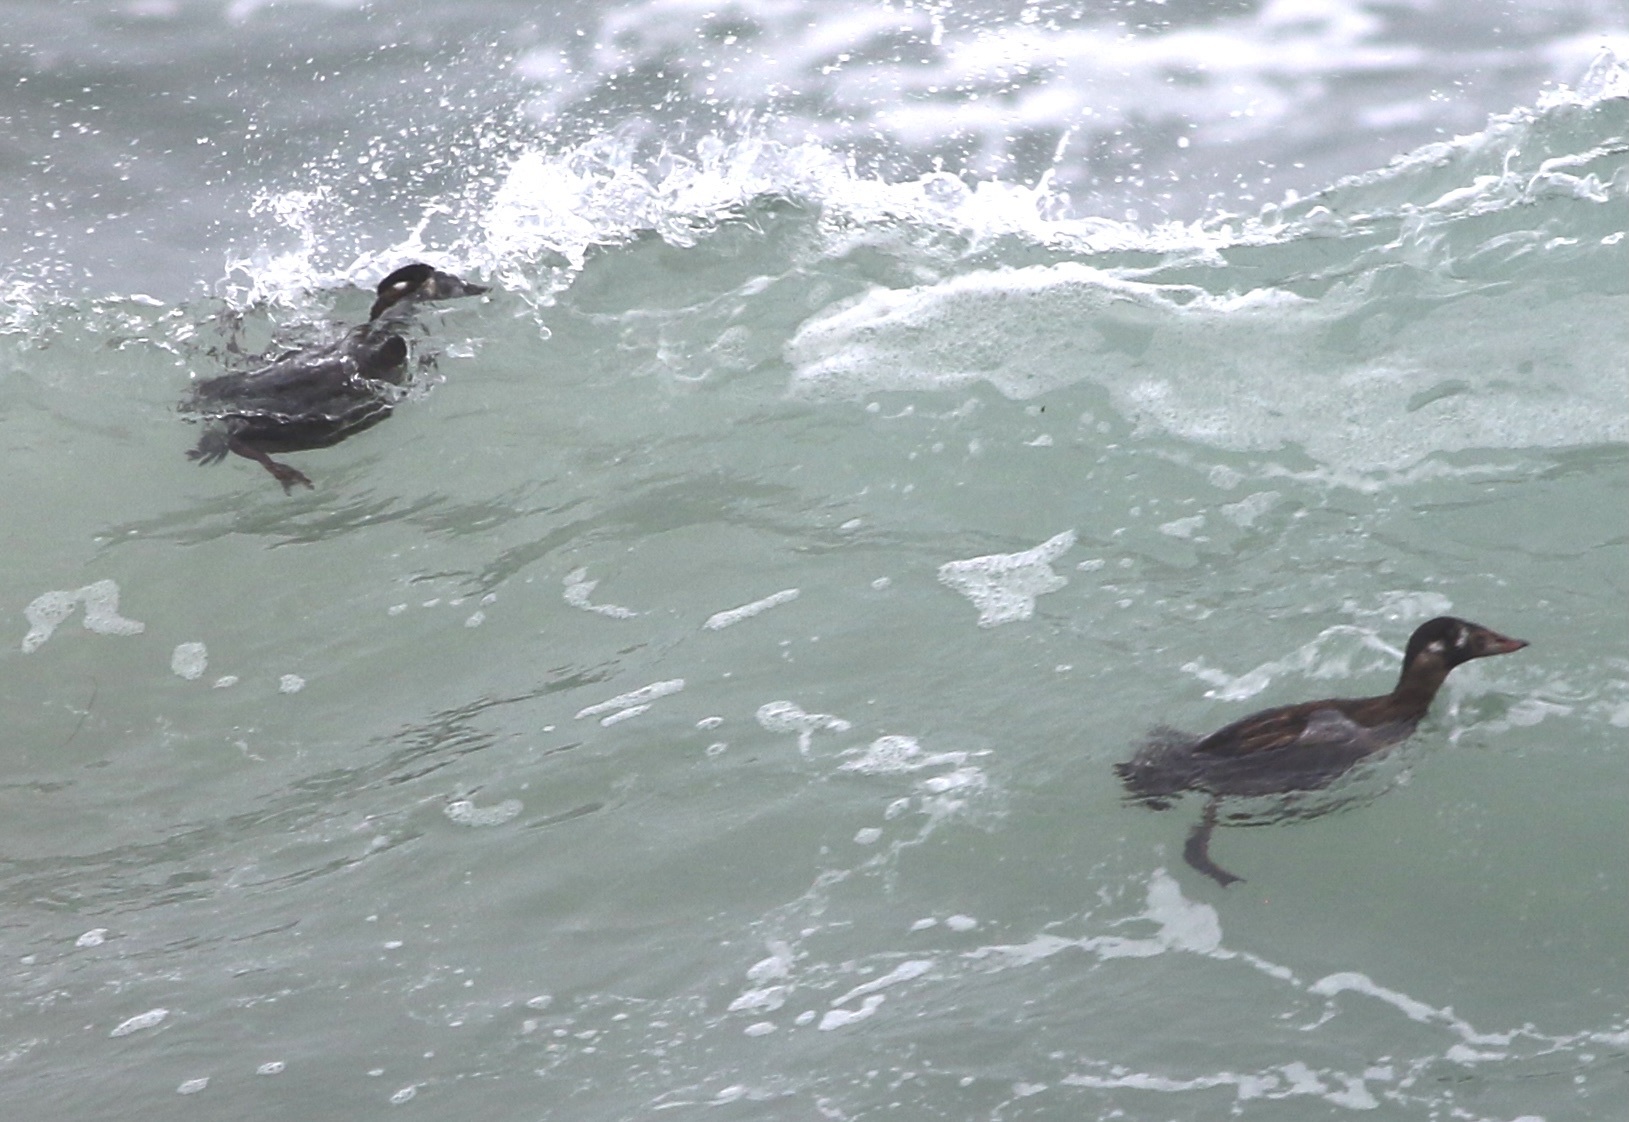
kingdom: Animalia
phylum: Chordata
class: Aves
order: Anseriformes
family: Anatidae
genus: Melanitta
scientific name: Melanitta perspicillata
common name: Surf scoter
